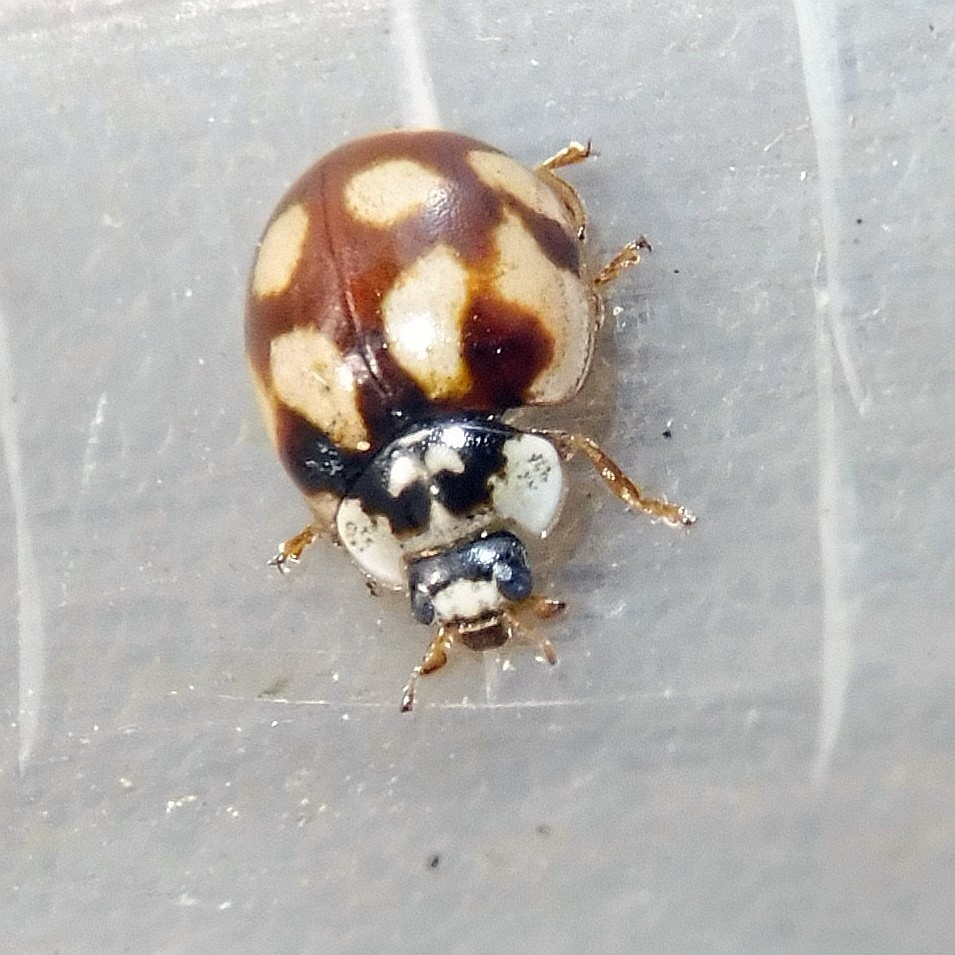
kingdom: Animalia
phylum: Arthropoda
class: Insecta
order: Coleoptera
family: Coccinellidae
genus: Adalia
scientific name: Adalia decempunctata
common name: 10-spot ladybird
